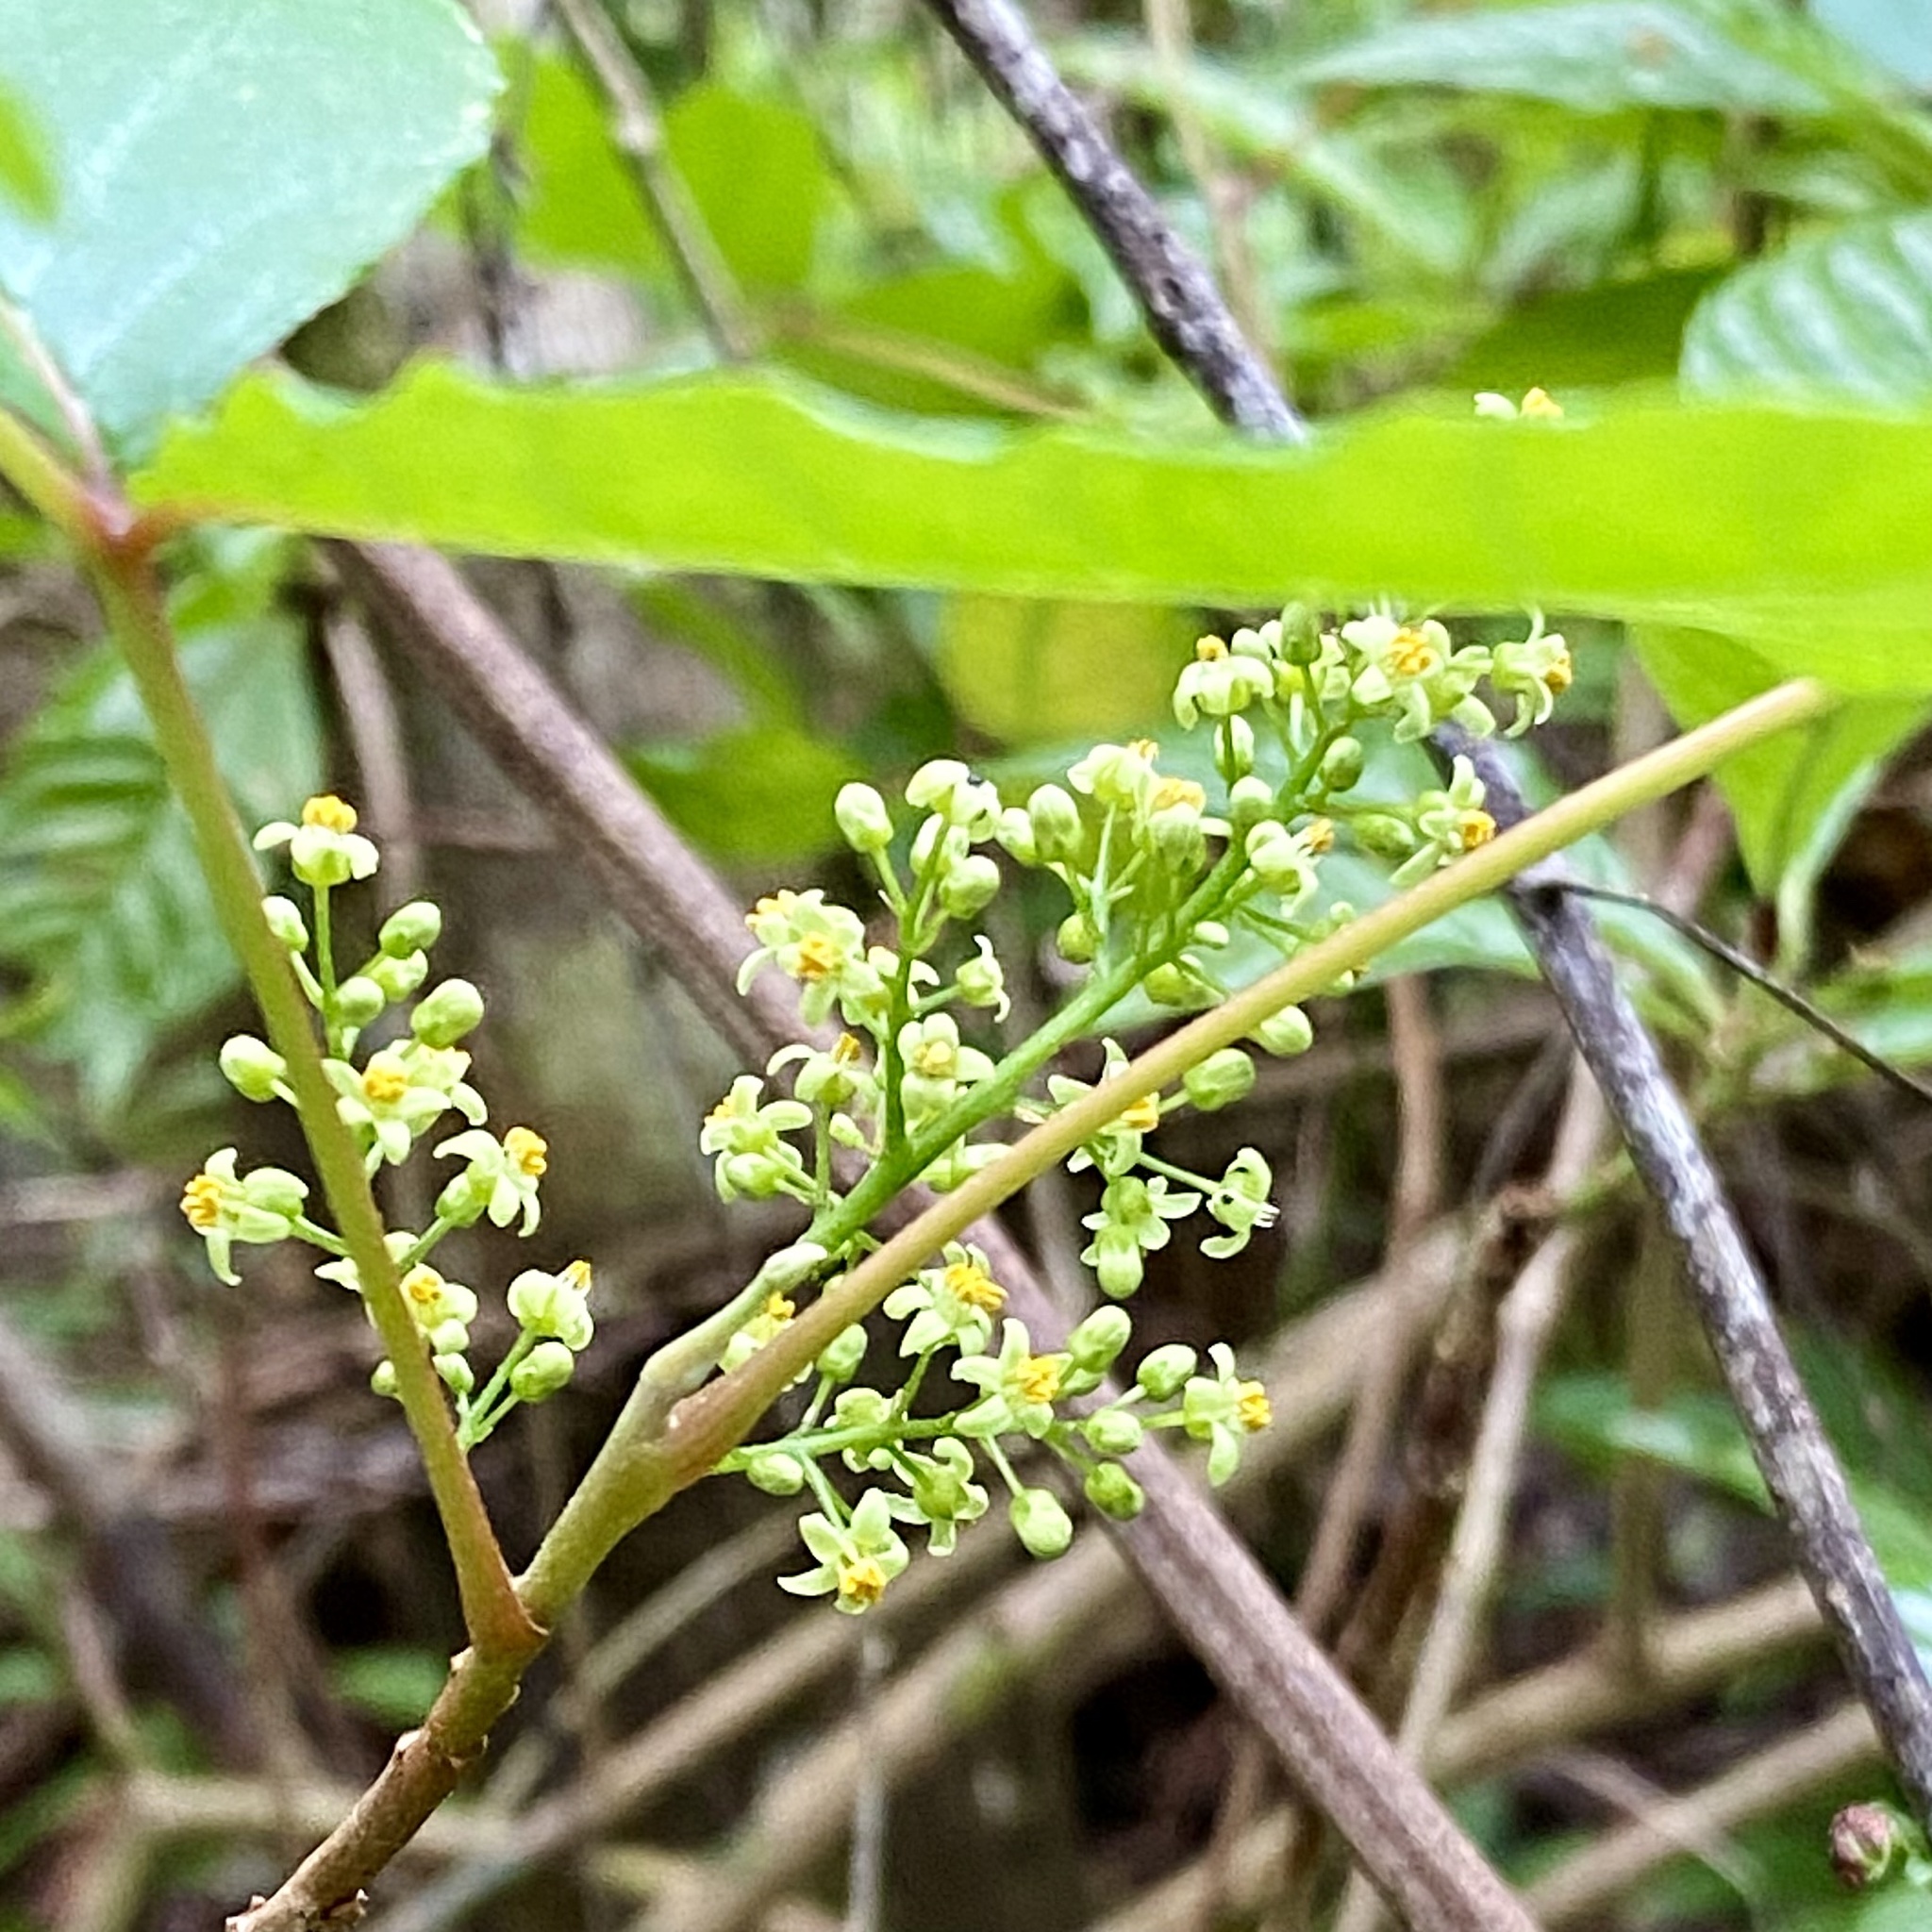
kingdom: Plantae
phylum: Tracheophyta
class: Magnoliopsida
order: Sapindales
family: Anacardiaceae
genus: Toxicodendron
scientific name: Toxicodendron radicans
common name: Poison ivy
